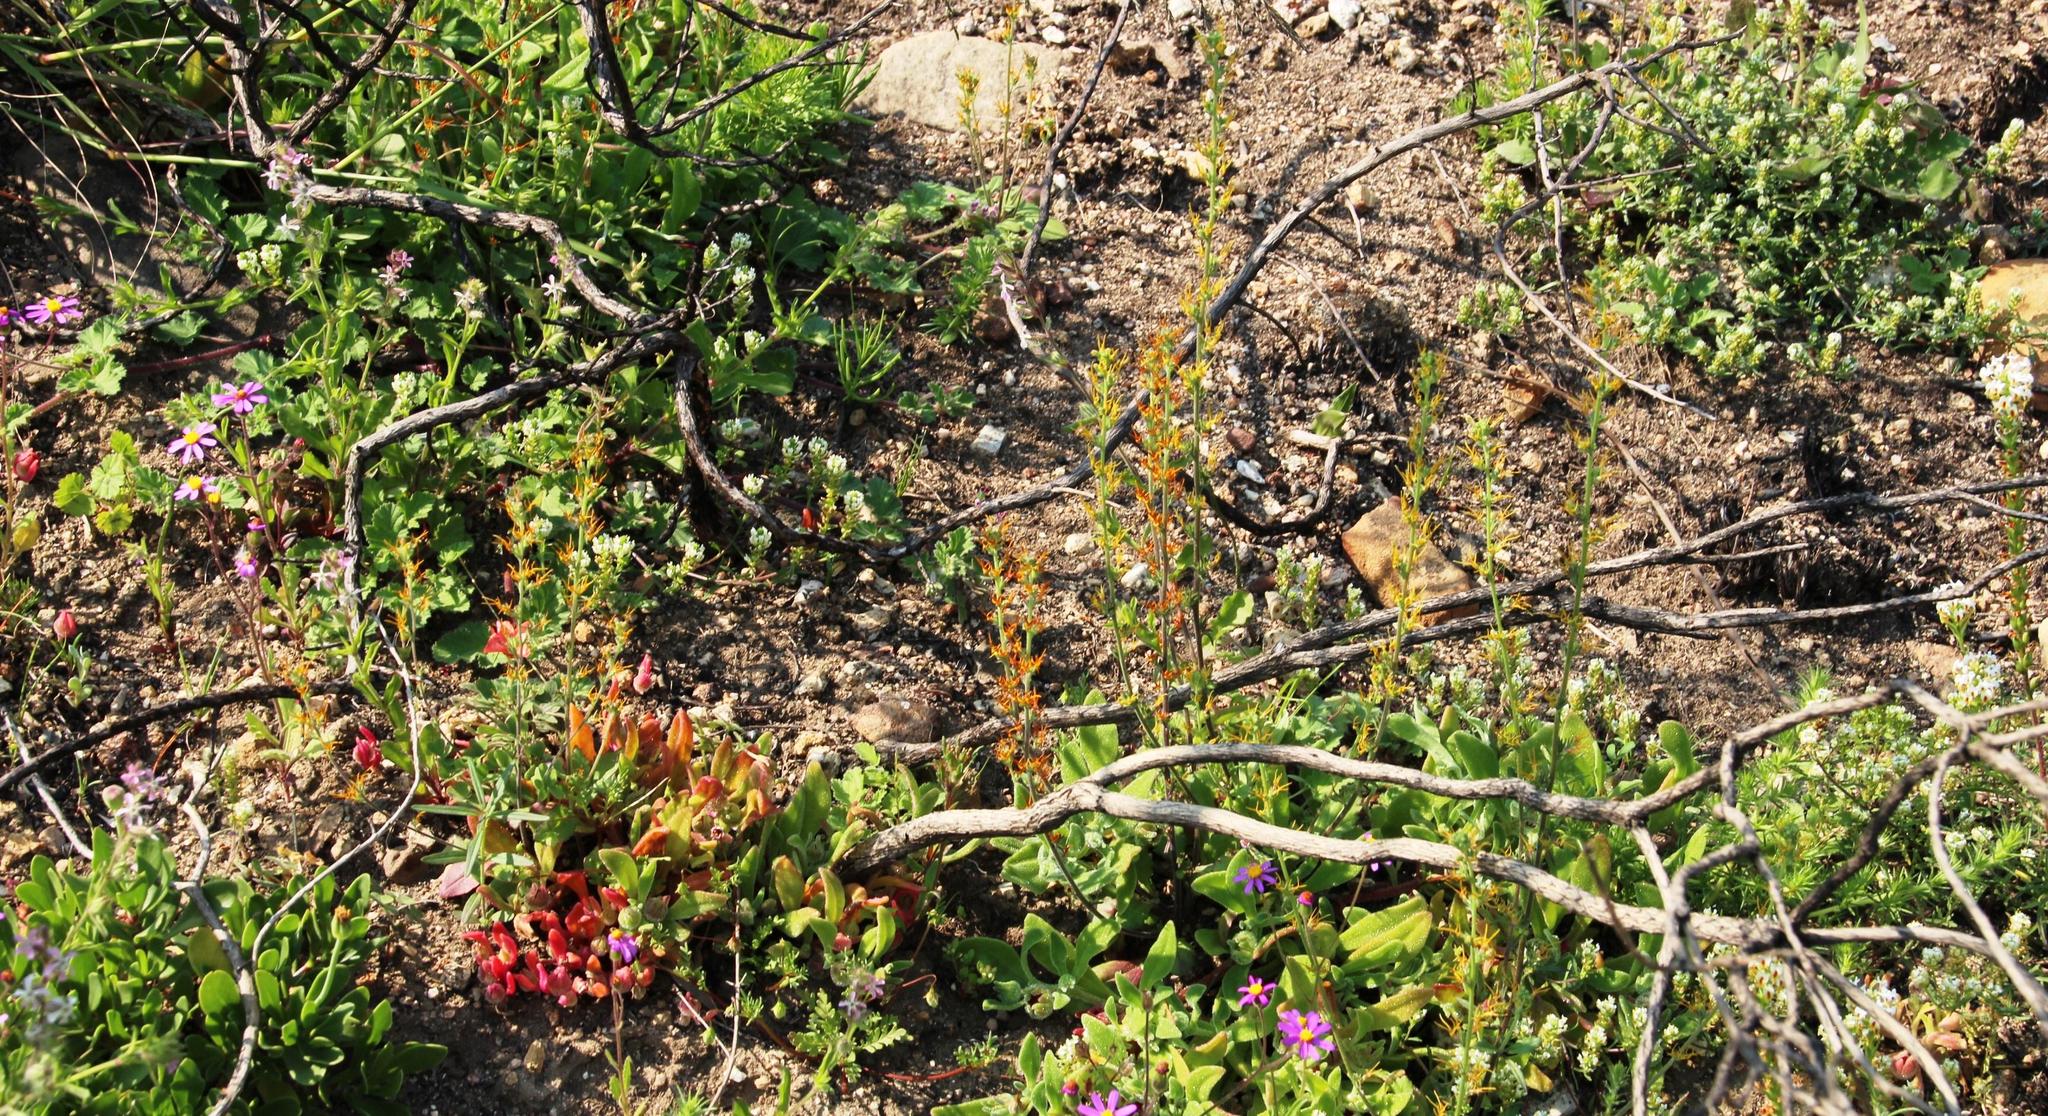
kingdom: Plantae
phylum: Tracheophyta
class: Magnoliopsida
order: Lamiales
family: Scrophulariaceae
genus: Manulea
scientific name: Manulea cheiranthus
